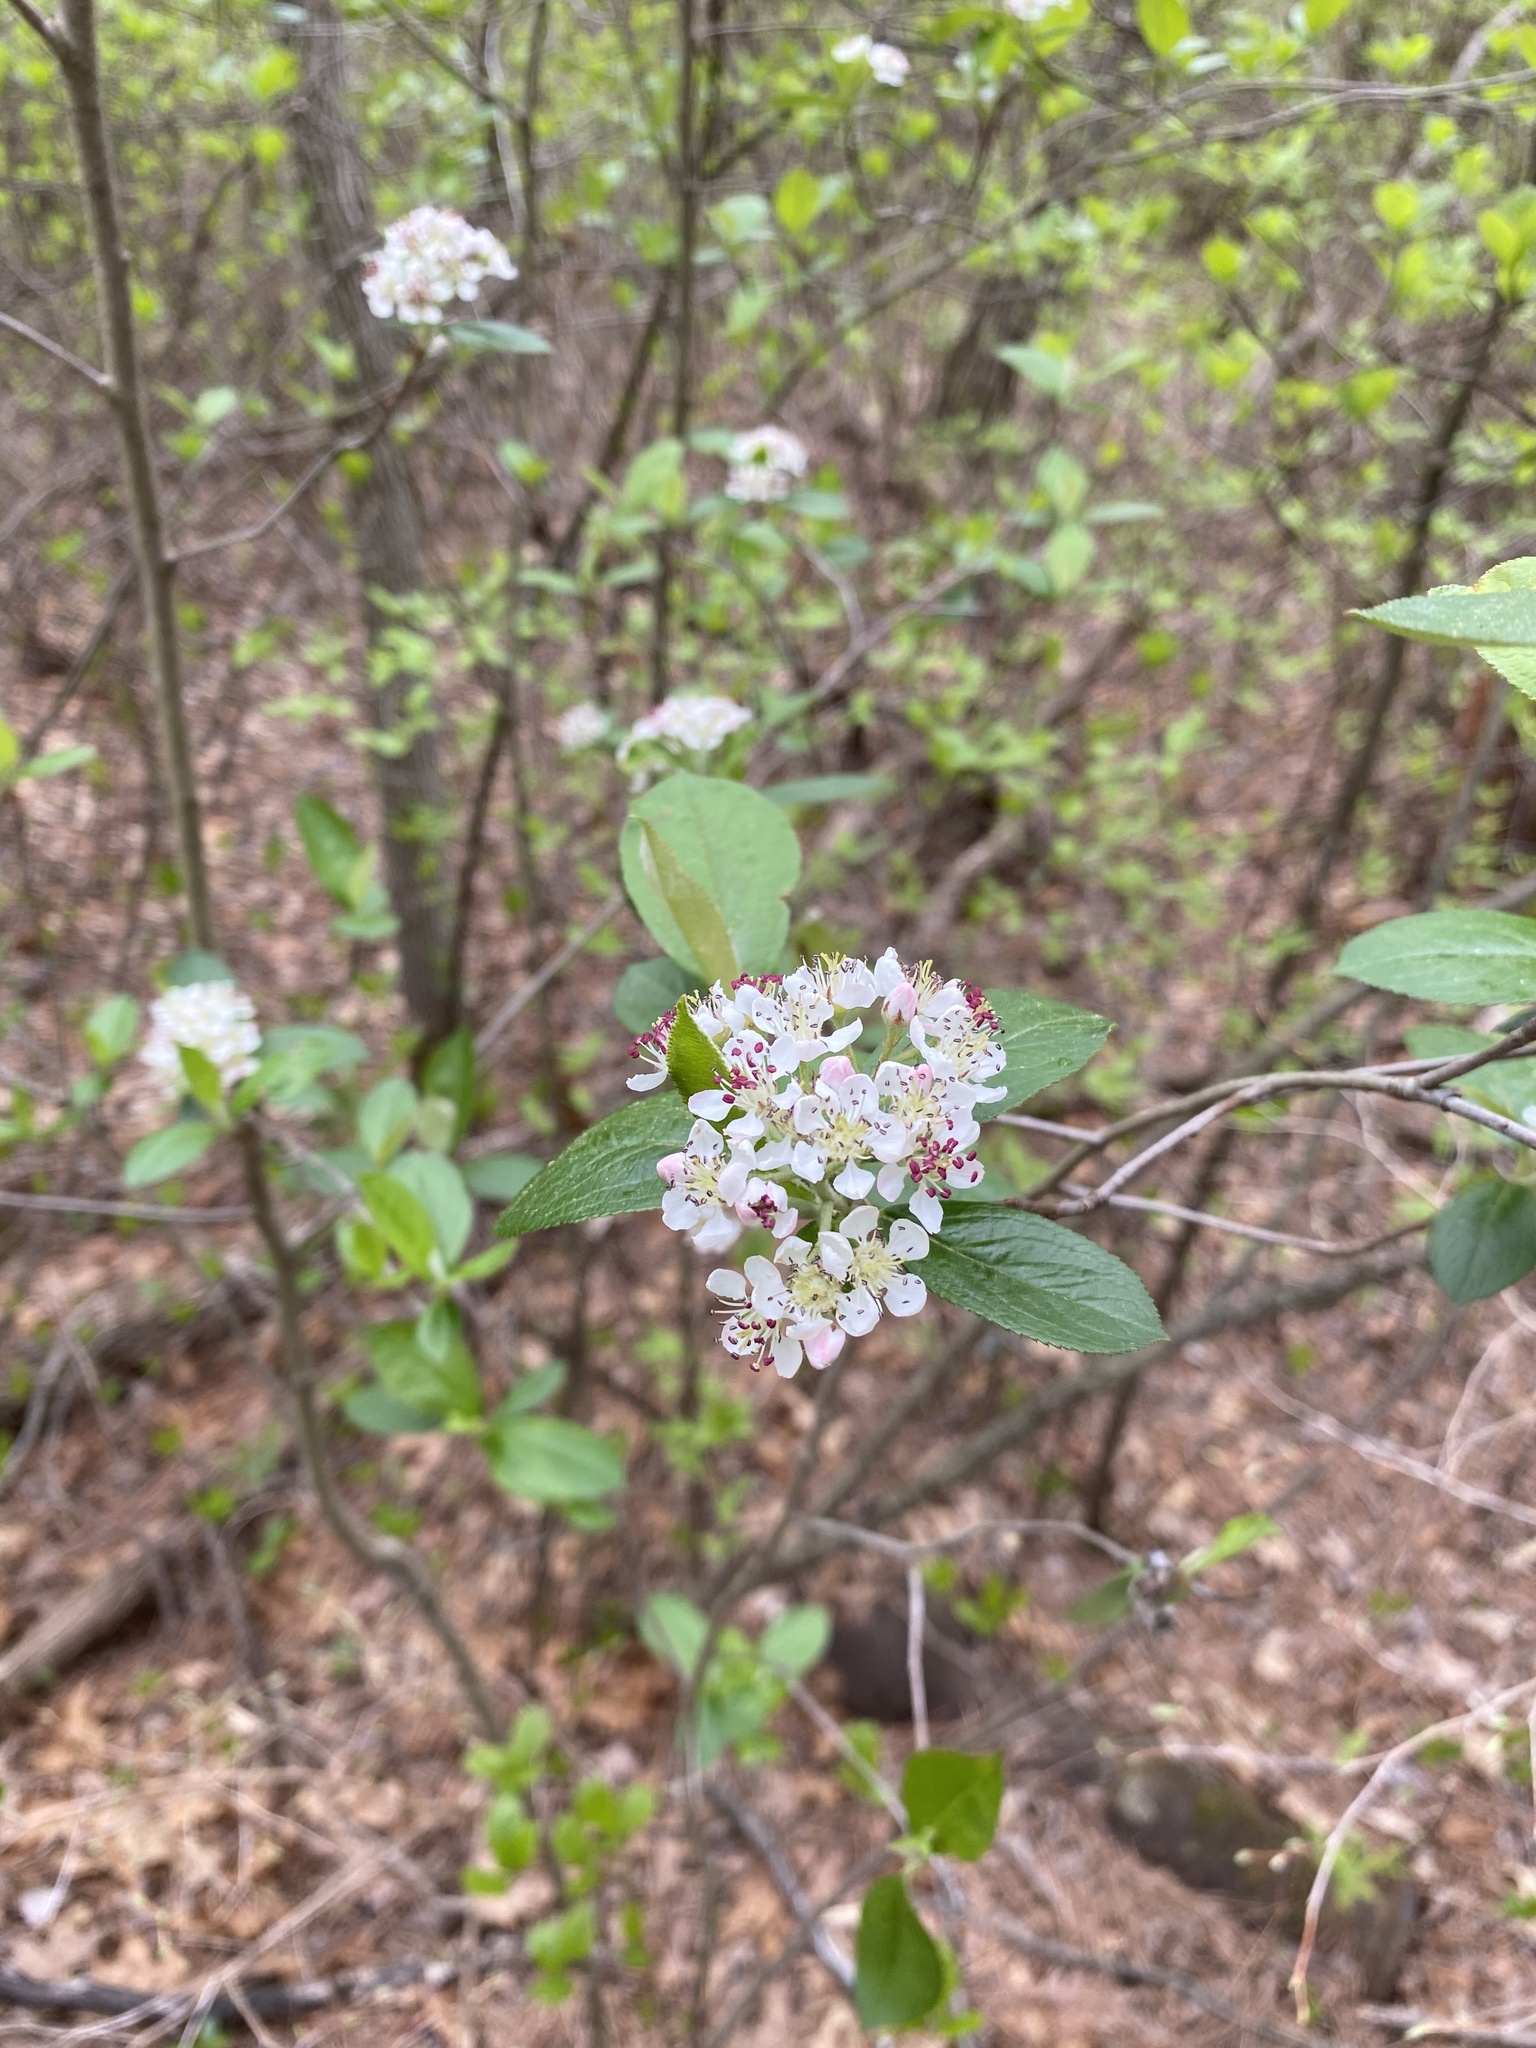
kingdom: Plantae
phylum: Tracheophyta
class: Magnoliopsida
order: Rosales
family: Rosaceae
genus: Aronia
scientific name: Aronia arbutifolia
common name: Red chokeberry
